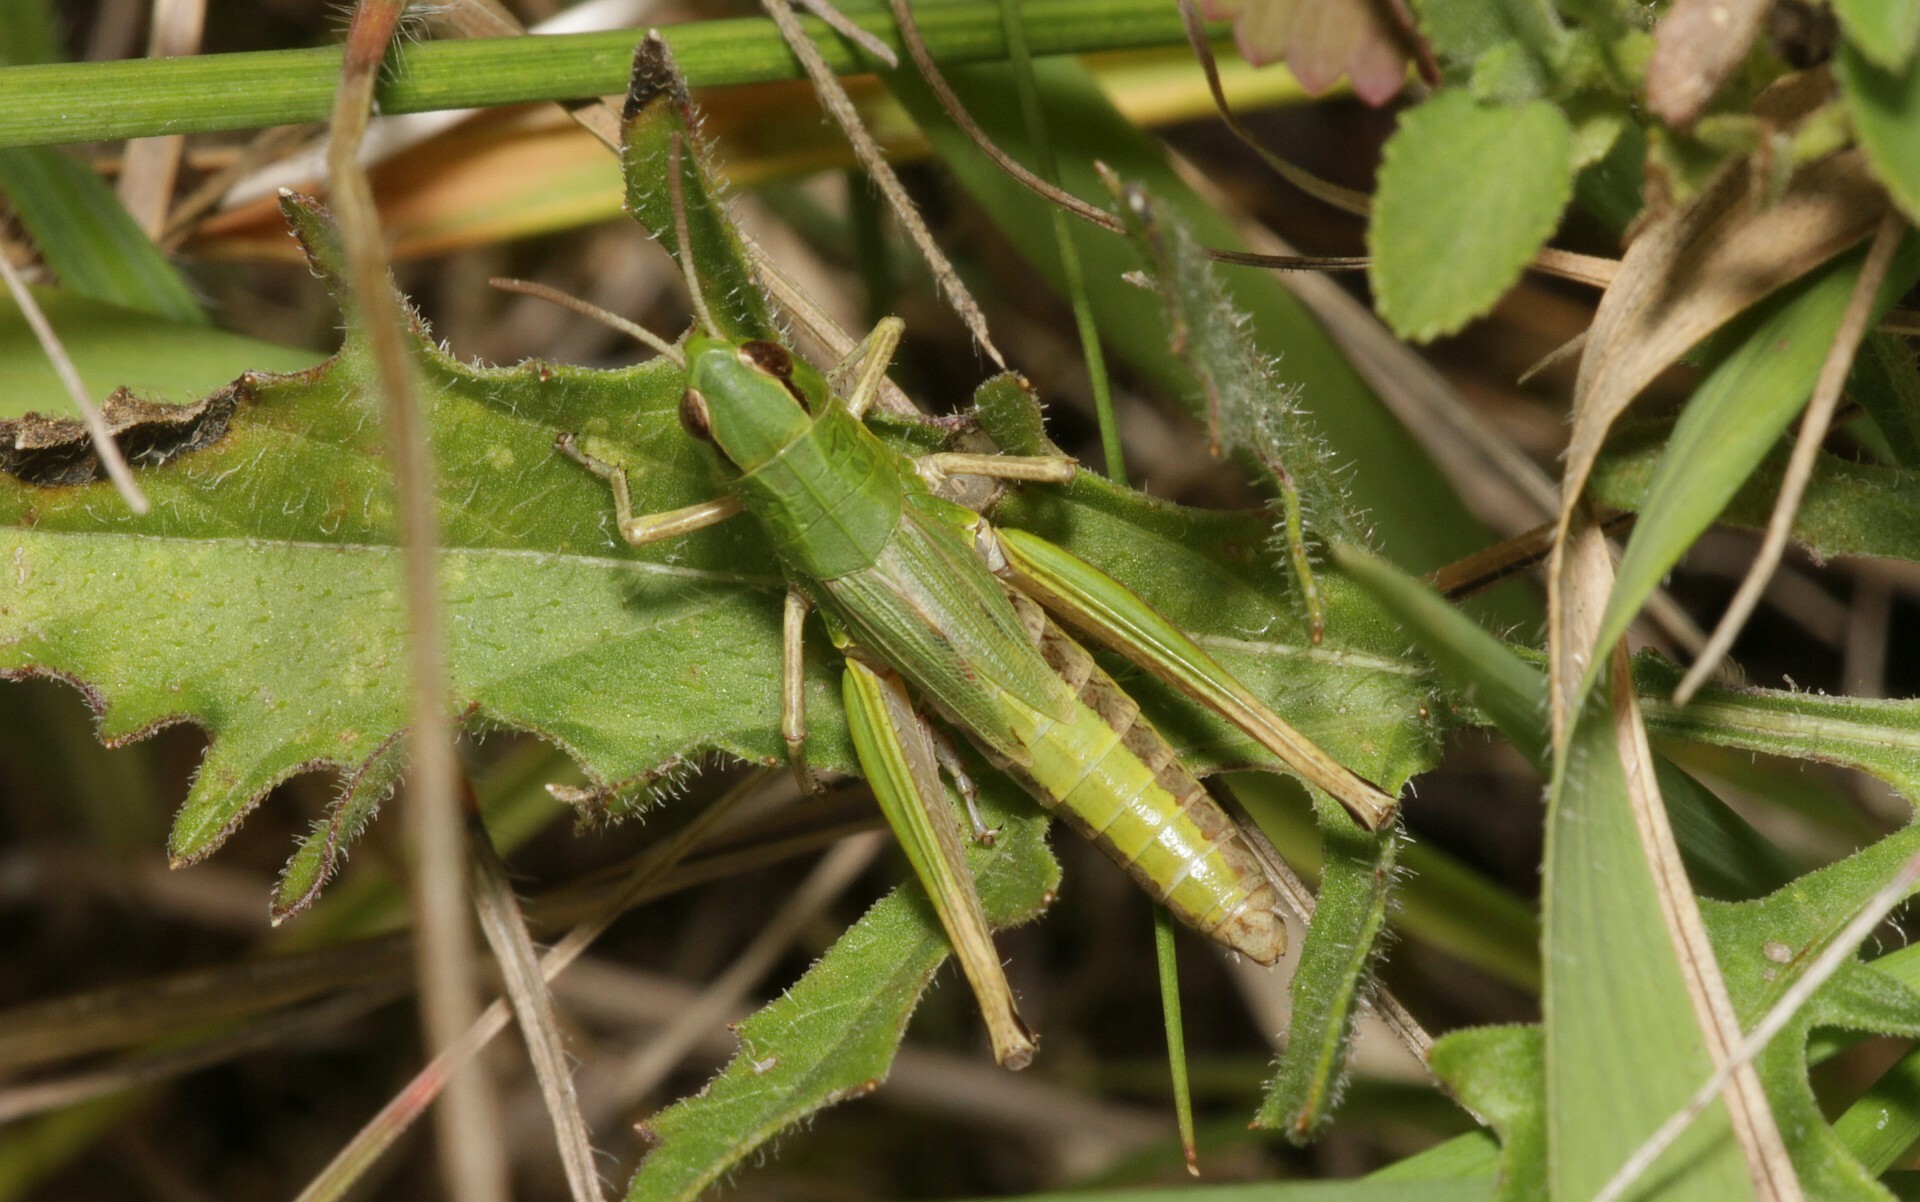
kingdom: Animalia
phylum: Arthropoda
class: Insecta
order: Orthoptera
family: Acrididae
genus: Pseudochorthippus
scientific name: Pseudochorthippus parallelus
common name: Meadow grasshopper
